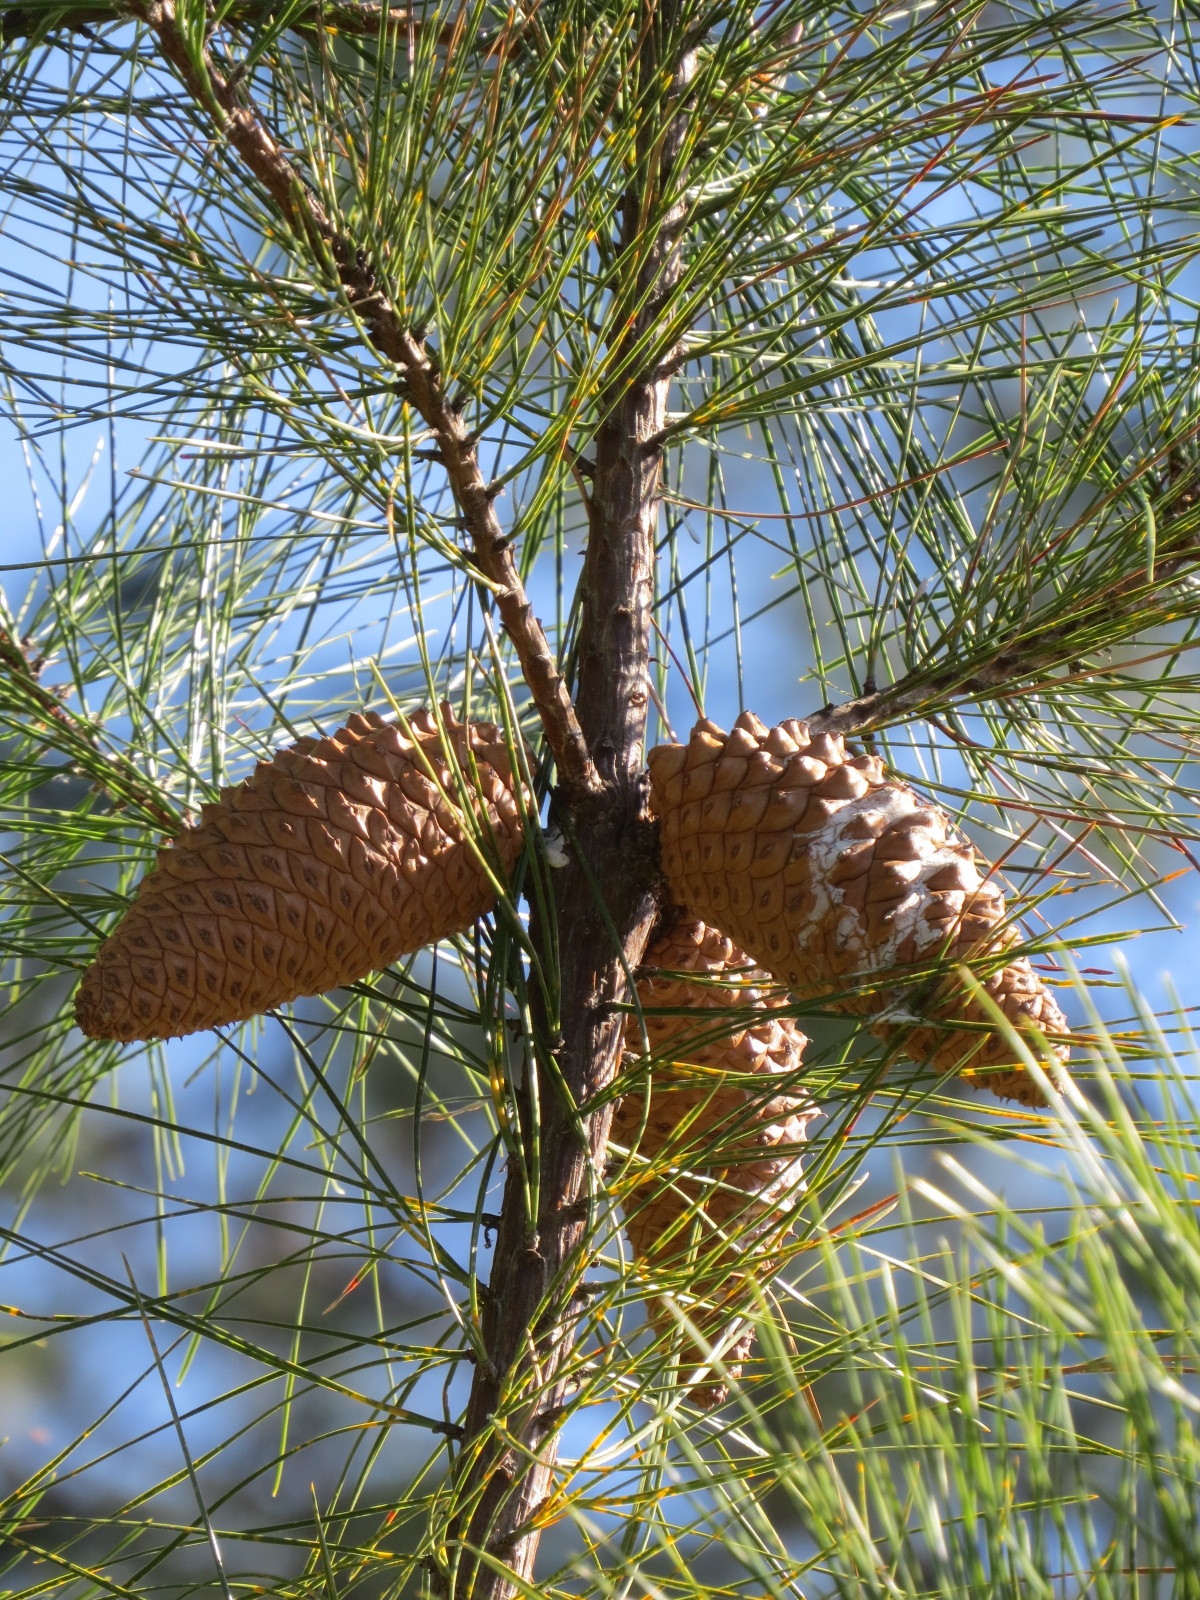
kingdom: Plantae
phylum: Tracheophyta
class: Pinopsida
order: Pinales
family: Pinaceae
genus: Pinus
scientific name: Pinus attenuata
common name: Knobcone pine
